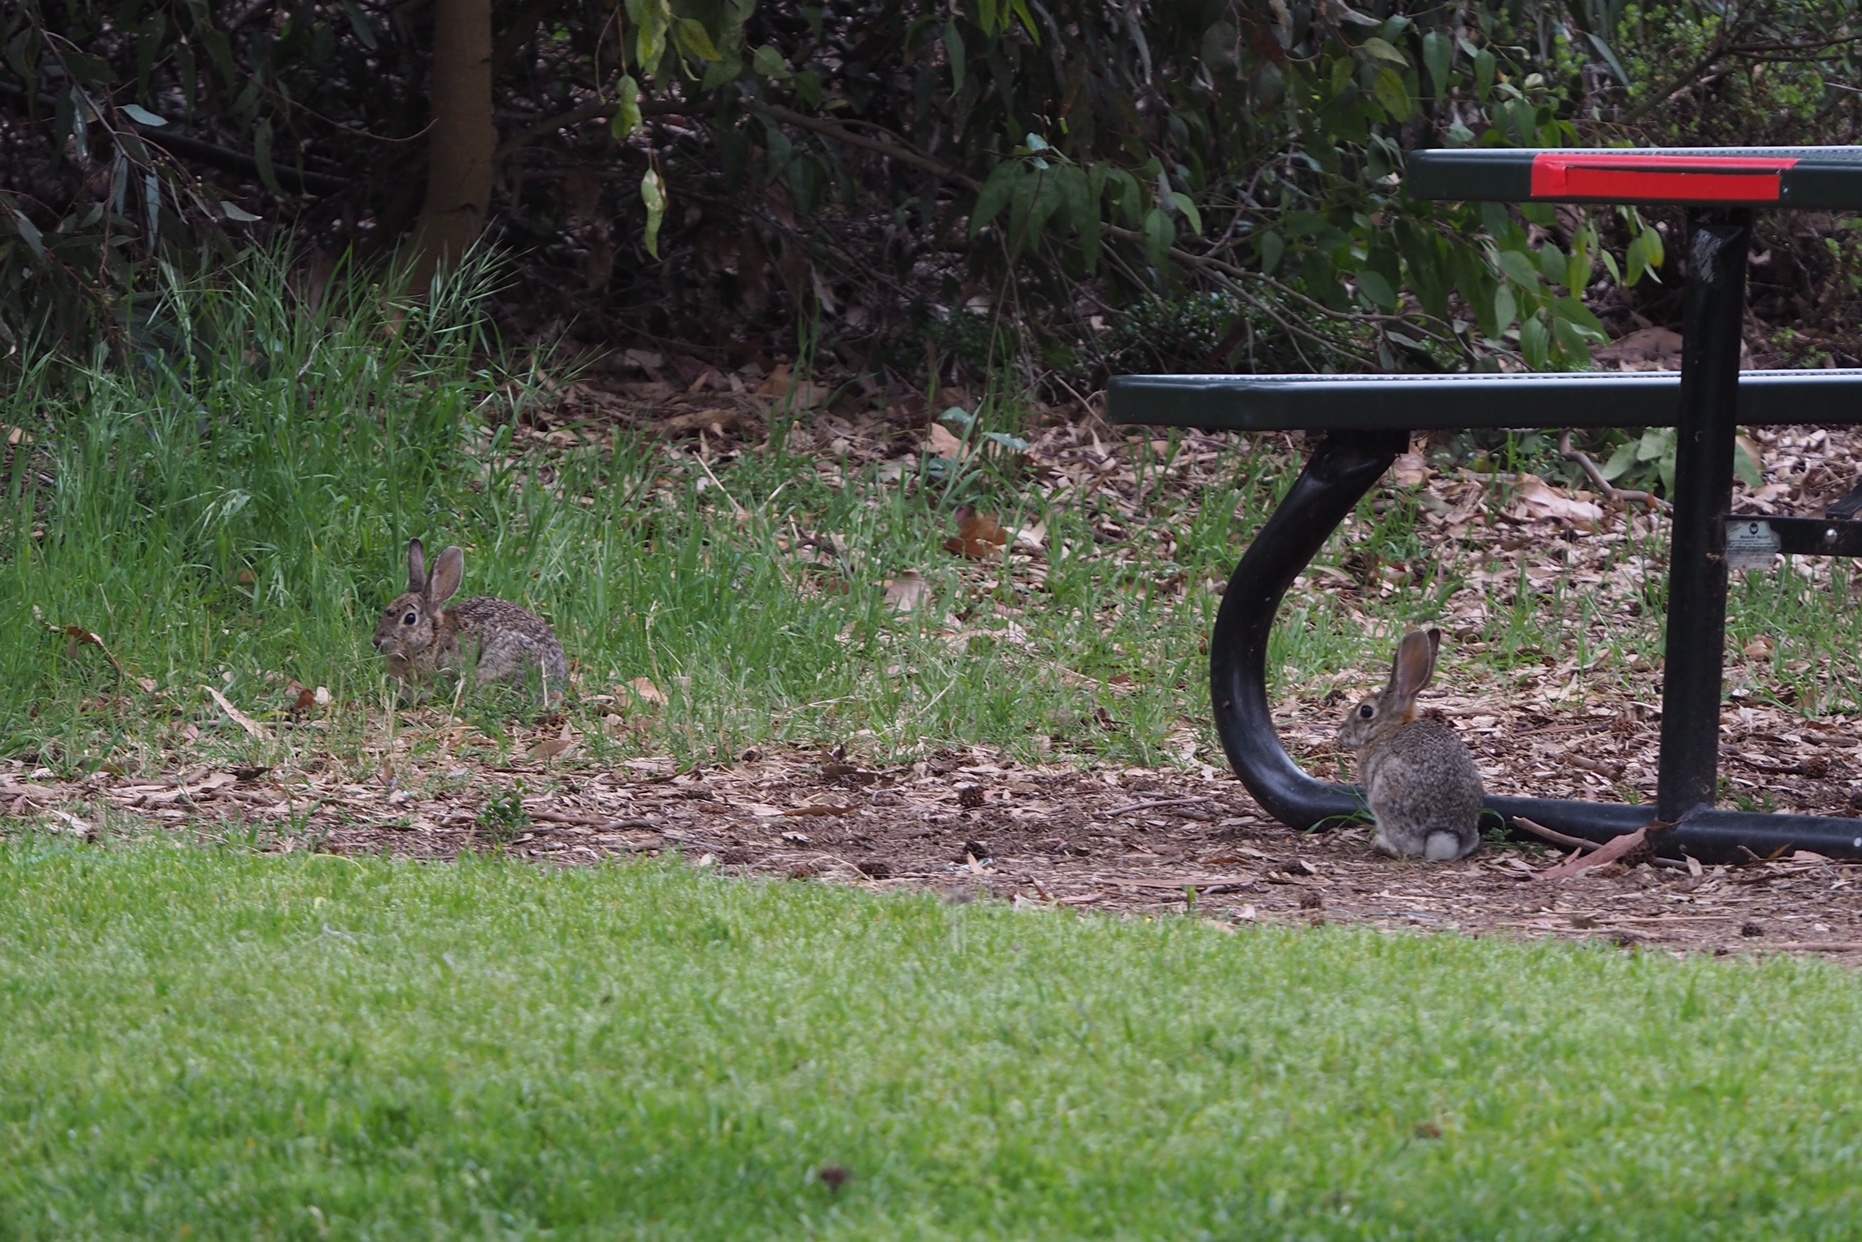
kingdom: Animalia
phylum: Chordata
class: Mammalia
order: Lagomorpha
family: Leporidae
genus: Sylvilagus
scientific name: Sylvilagus audubonii
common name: Desert cottontail
